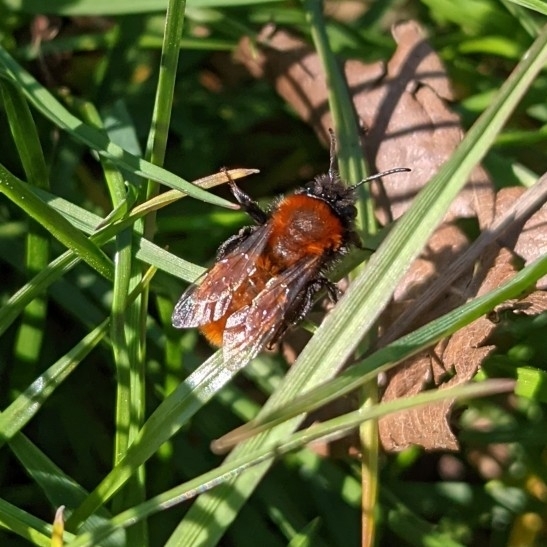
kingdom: Animalia
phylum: Arthropoda
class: Insecta
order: Hymenoptera
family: Andrenidae
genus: Andrena
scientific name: Andrena fulva
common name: Tawny mining bee
